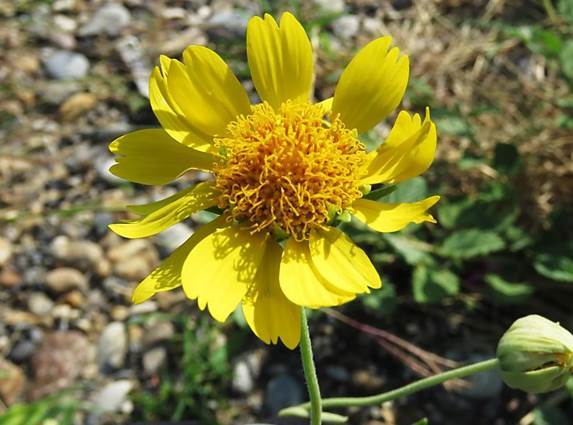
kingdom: Plantae
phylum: Tracheophyta
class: Magnoliopsida
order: Asterales
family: Asteraceae
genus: Verbesina
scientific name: Verbesina encelioides
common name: Golden crownbeard
